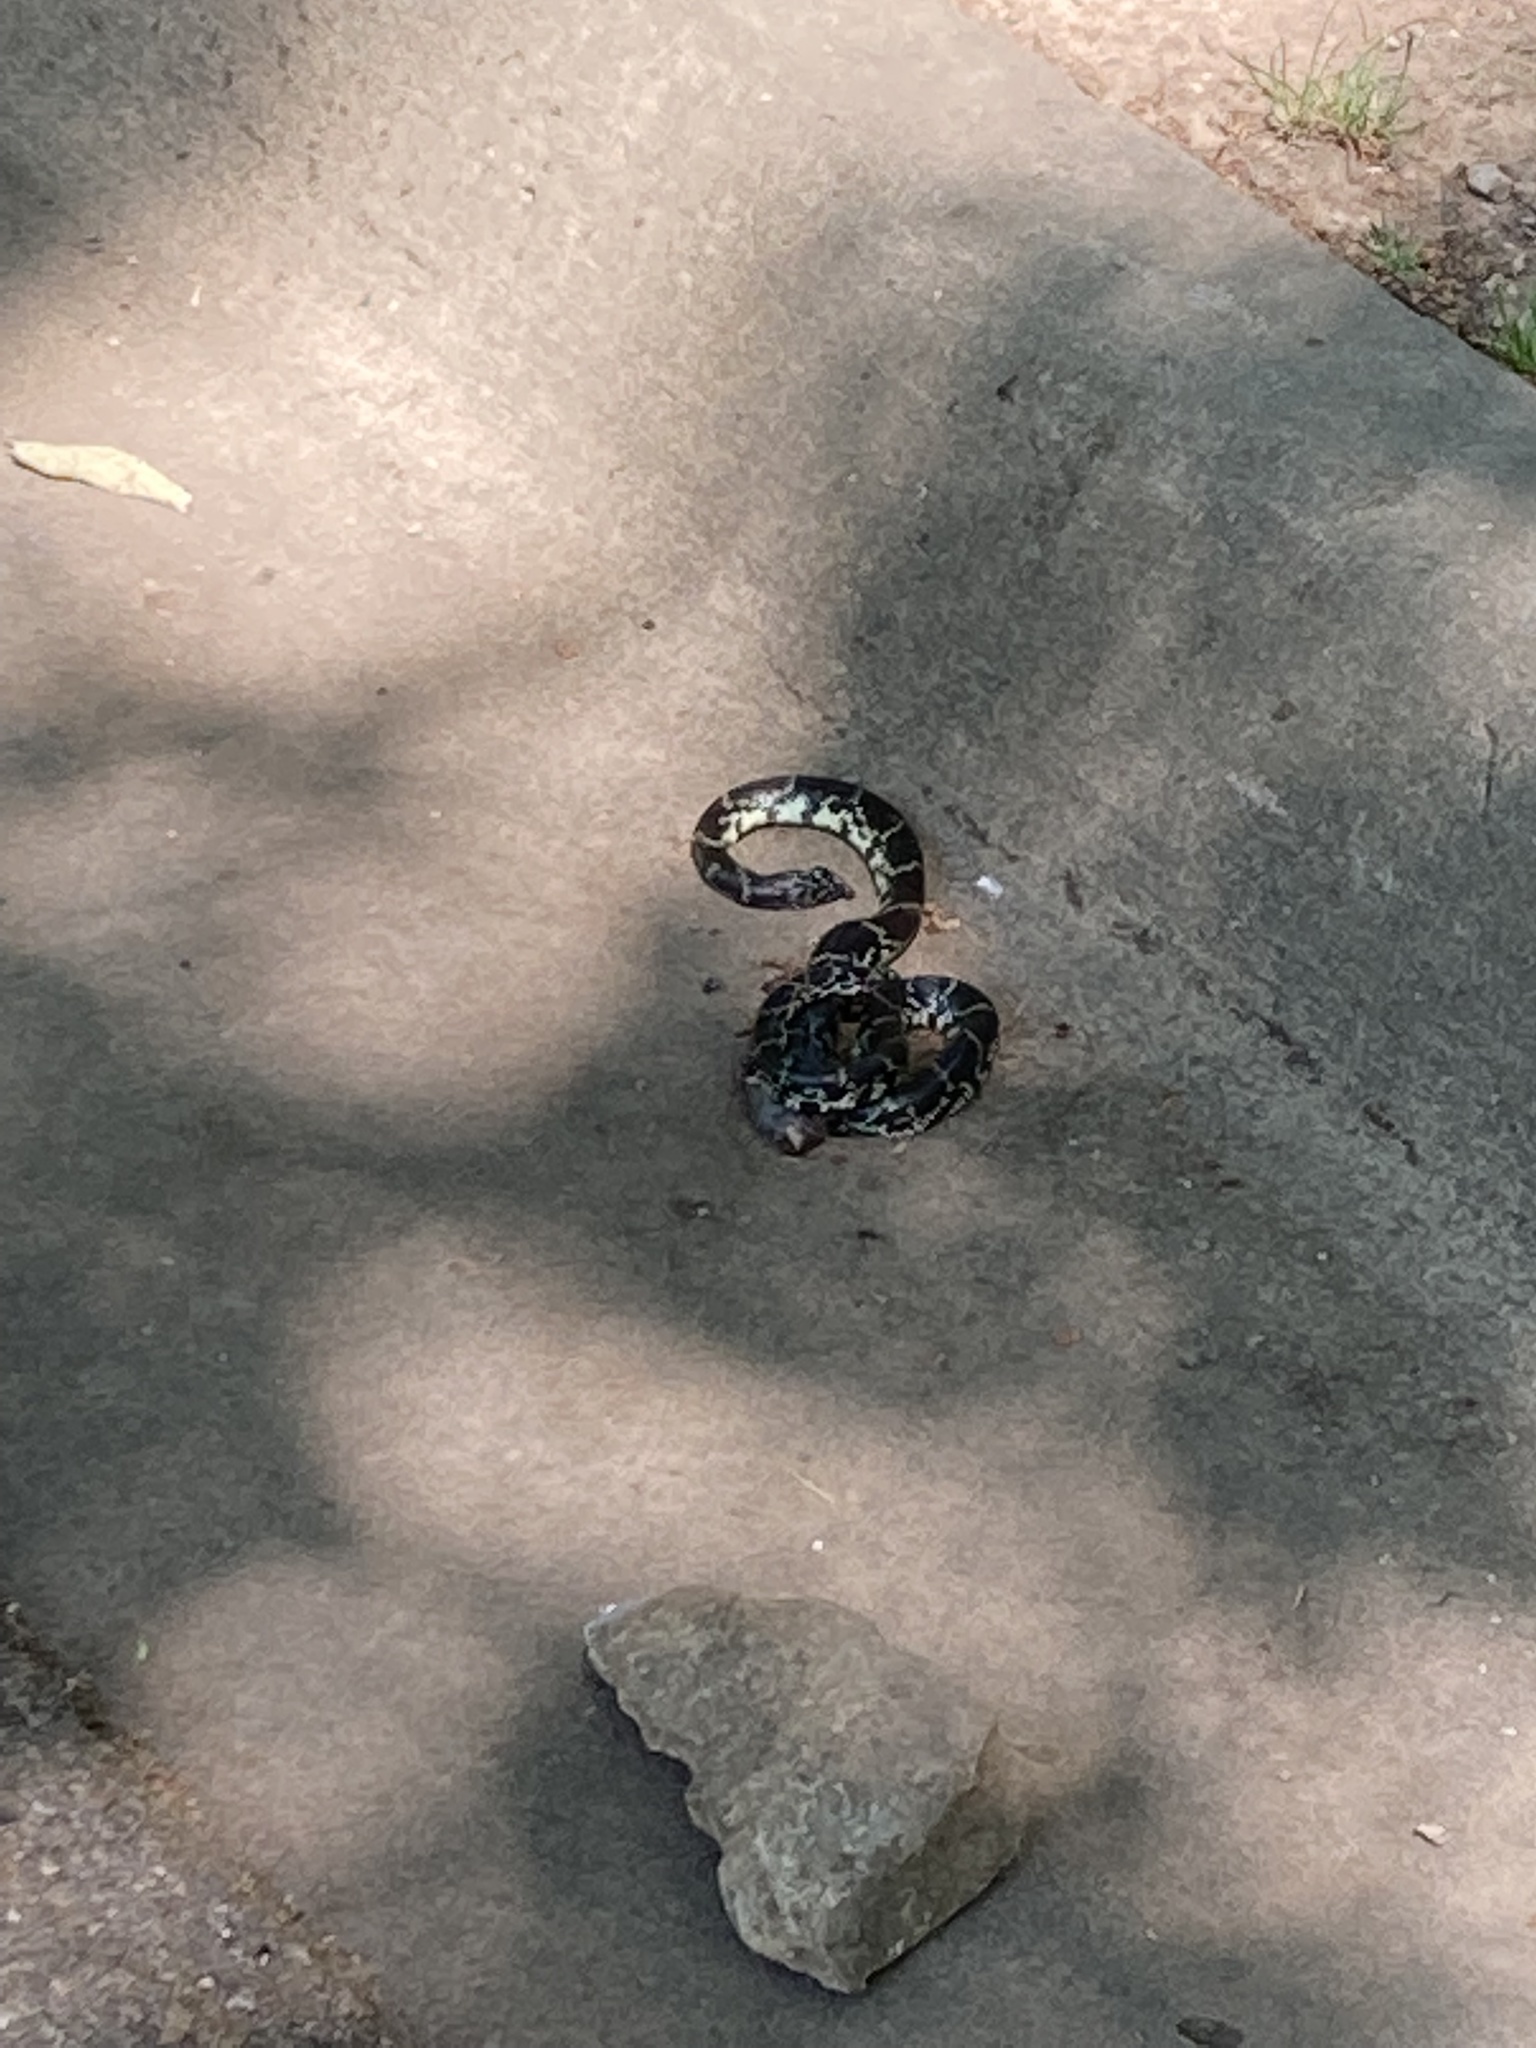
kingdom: Animalia
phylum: Chordata
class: Squamata
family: Colubridae
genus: Lampropeltis
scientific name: Lampropeltis nigra
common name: Black kingsnake
